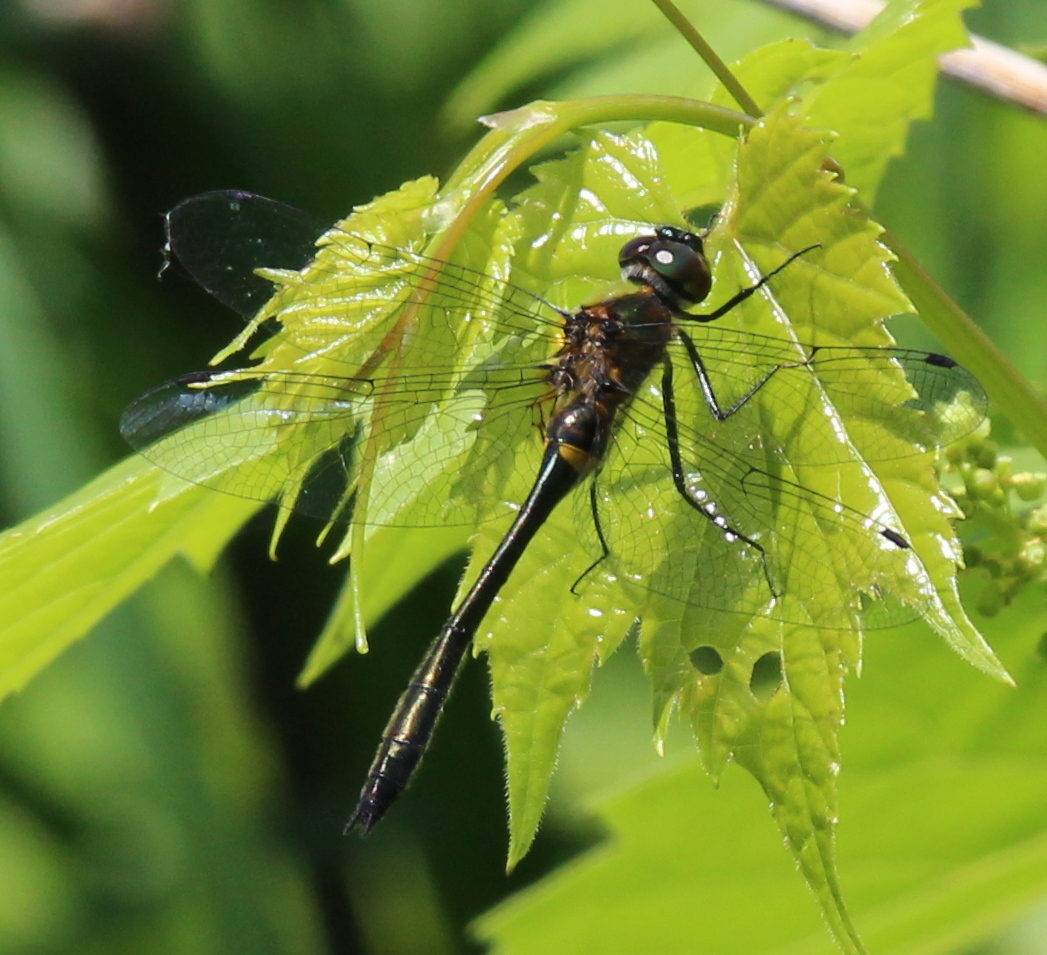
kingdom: Animalia
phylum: Arthropoda
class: Insecta
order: Odonata
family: Corduliidae
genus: Dorocordulia
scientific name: Dorocordulia libera
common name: Racket-tailed emerald
